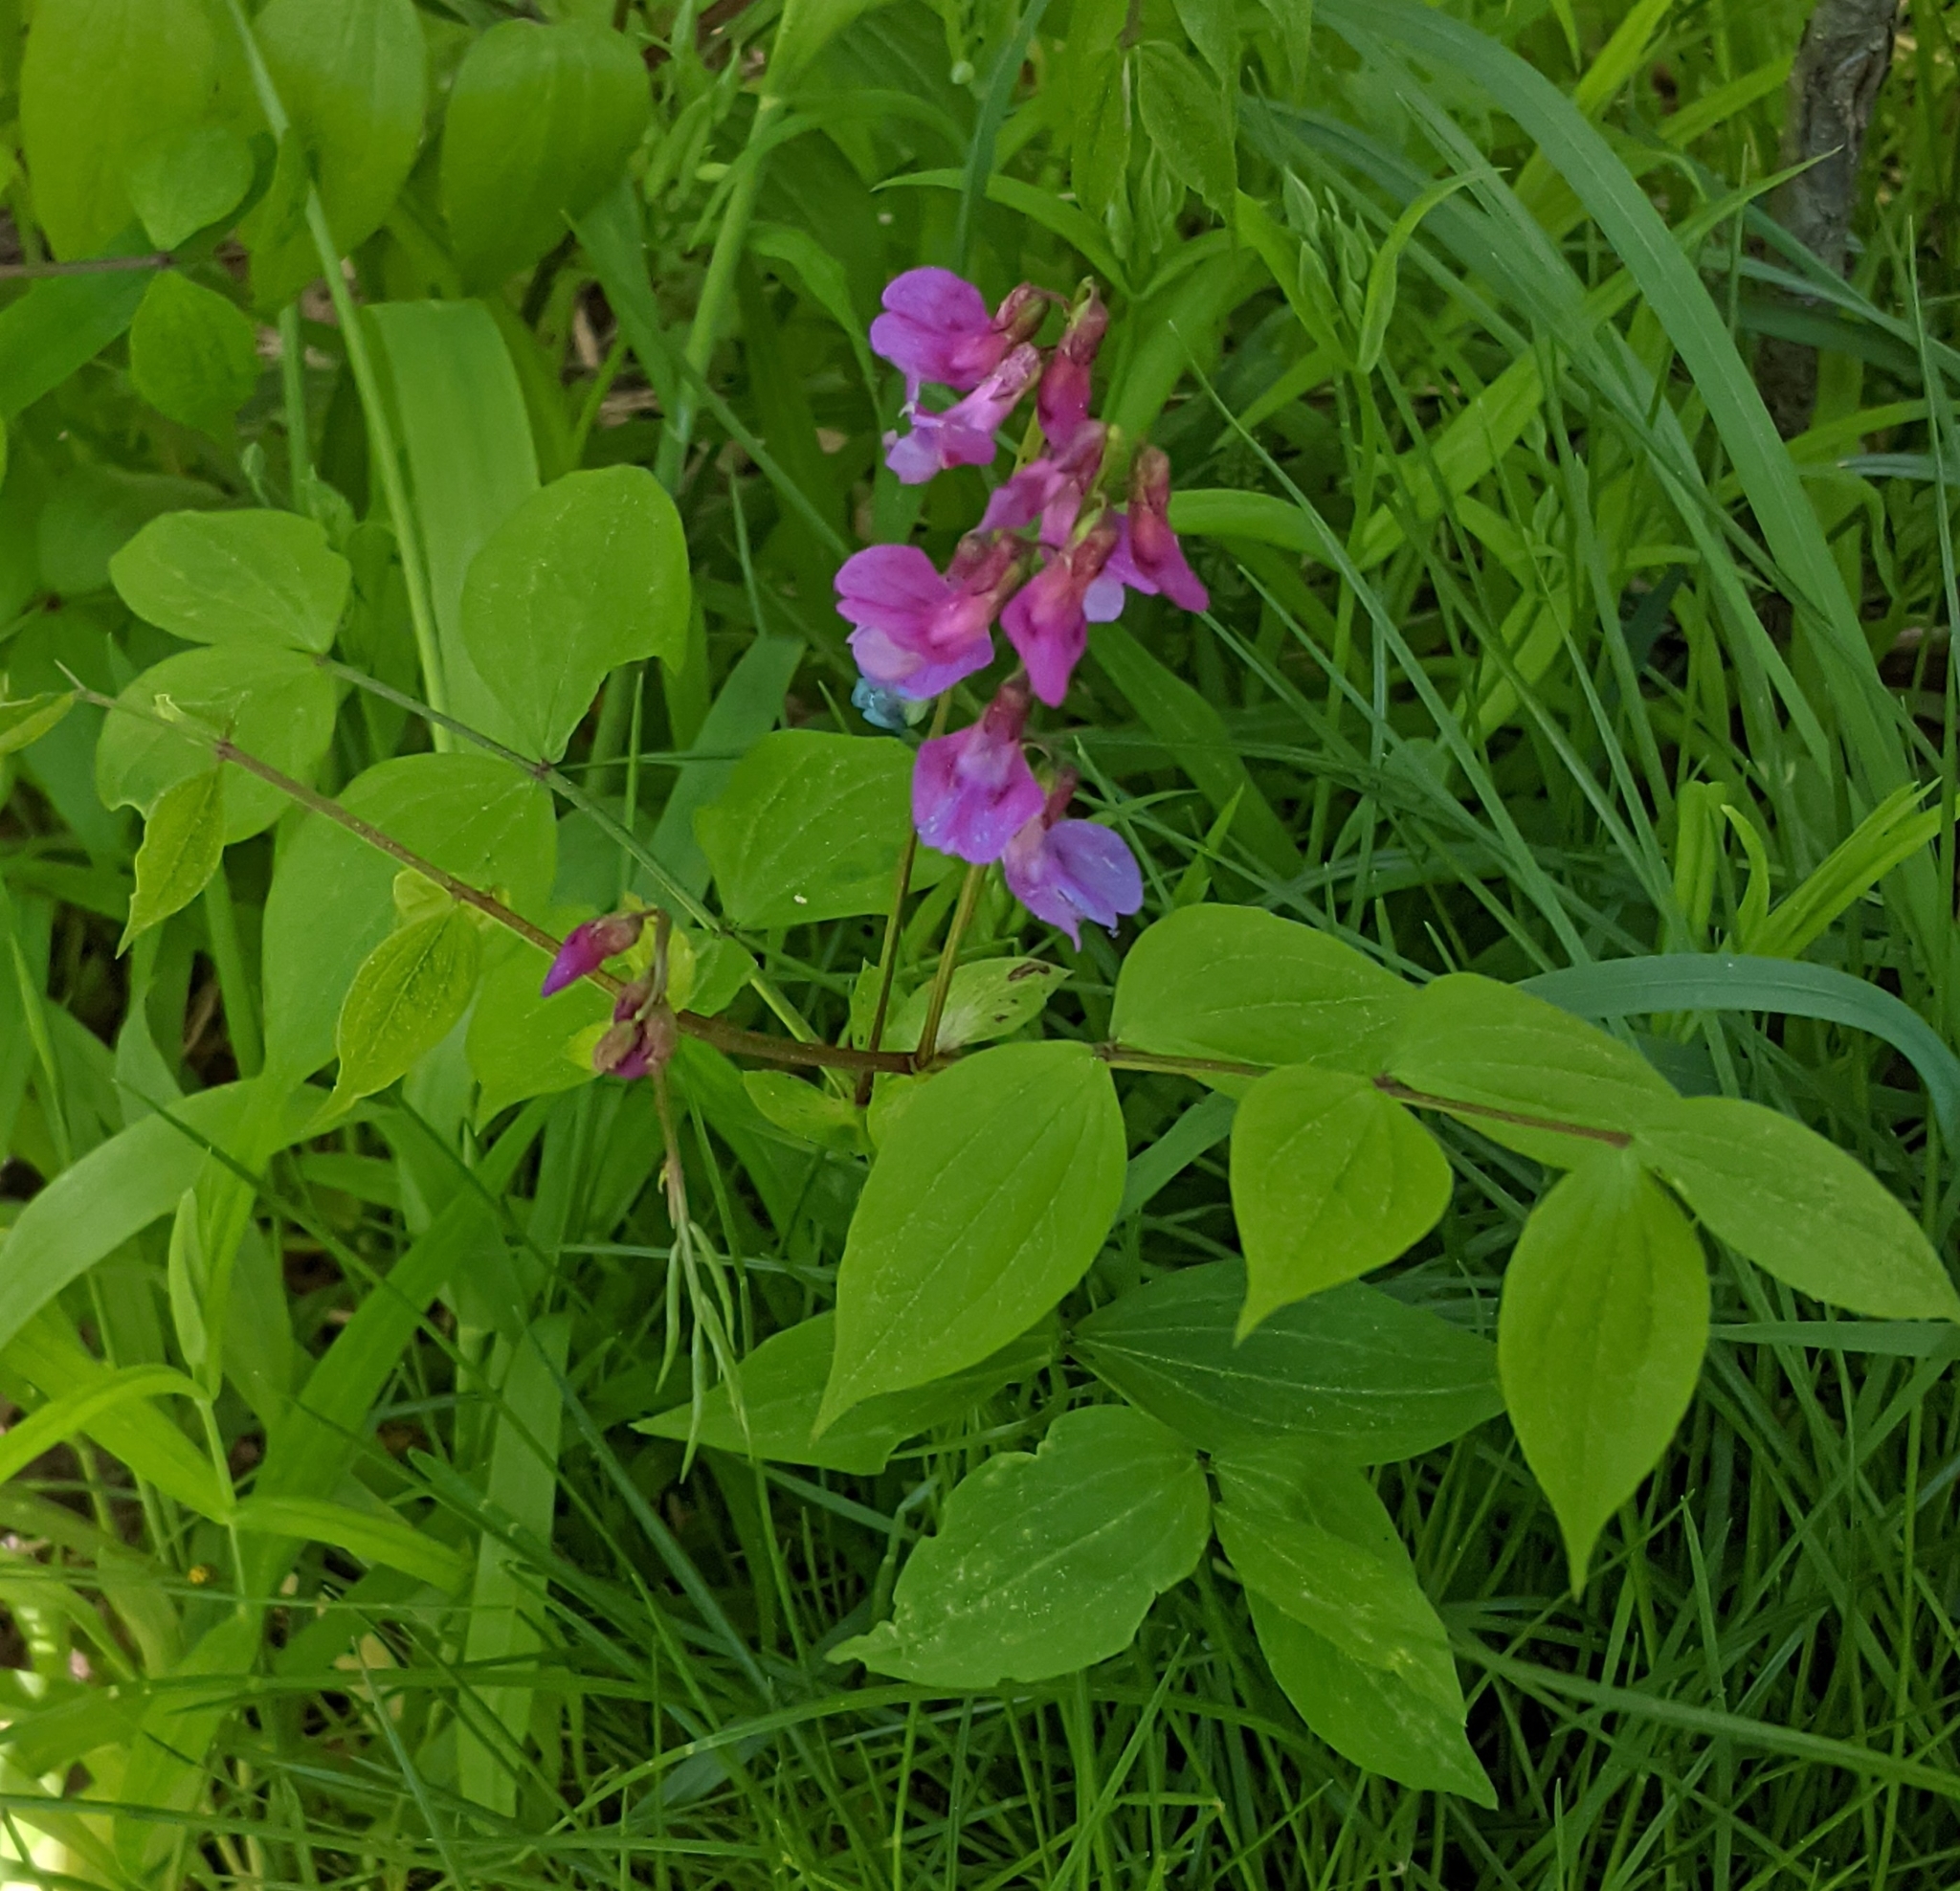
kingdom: Plantae
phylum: Tracheophyta
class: Magnoliopsida
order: Fabales
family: Fabaceae
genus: Lathyrus
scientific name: Lathyrus vernus
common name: Spring pea
